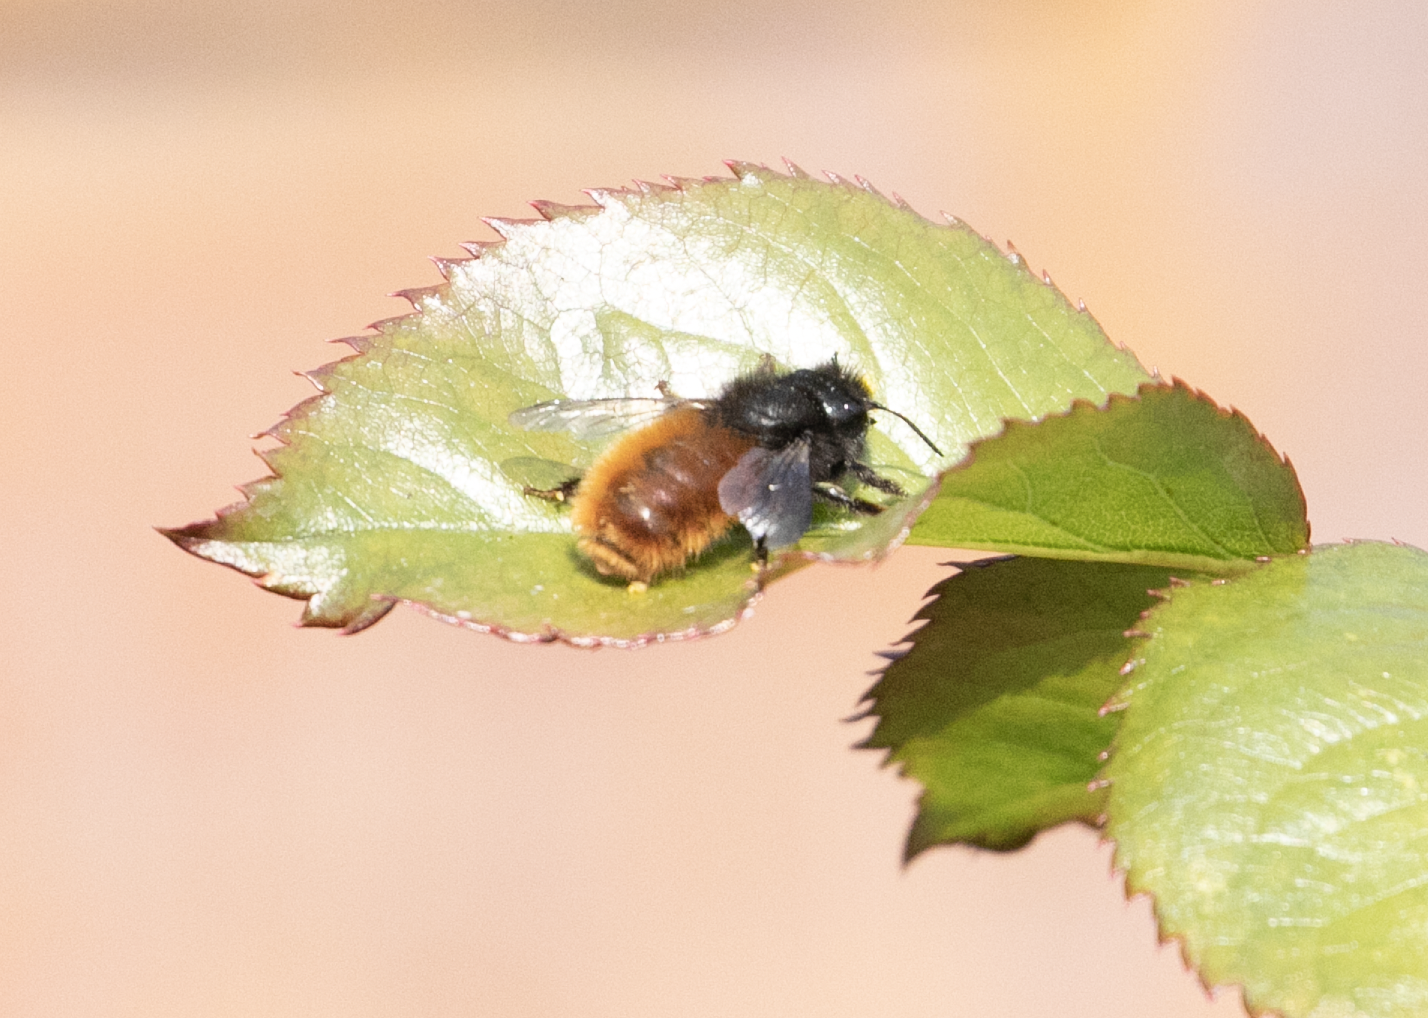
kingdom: Animalia
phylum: Arthropoda
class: Insecta
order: Hymenoptera
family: Megachilidae
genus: Osmia
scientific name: Osmia cornuta
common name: Mason bee
